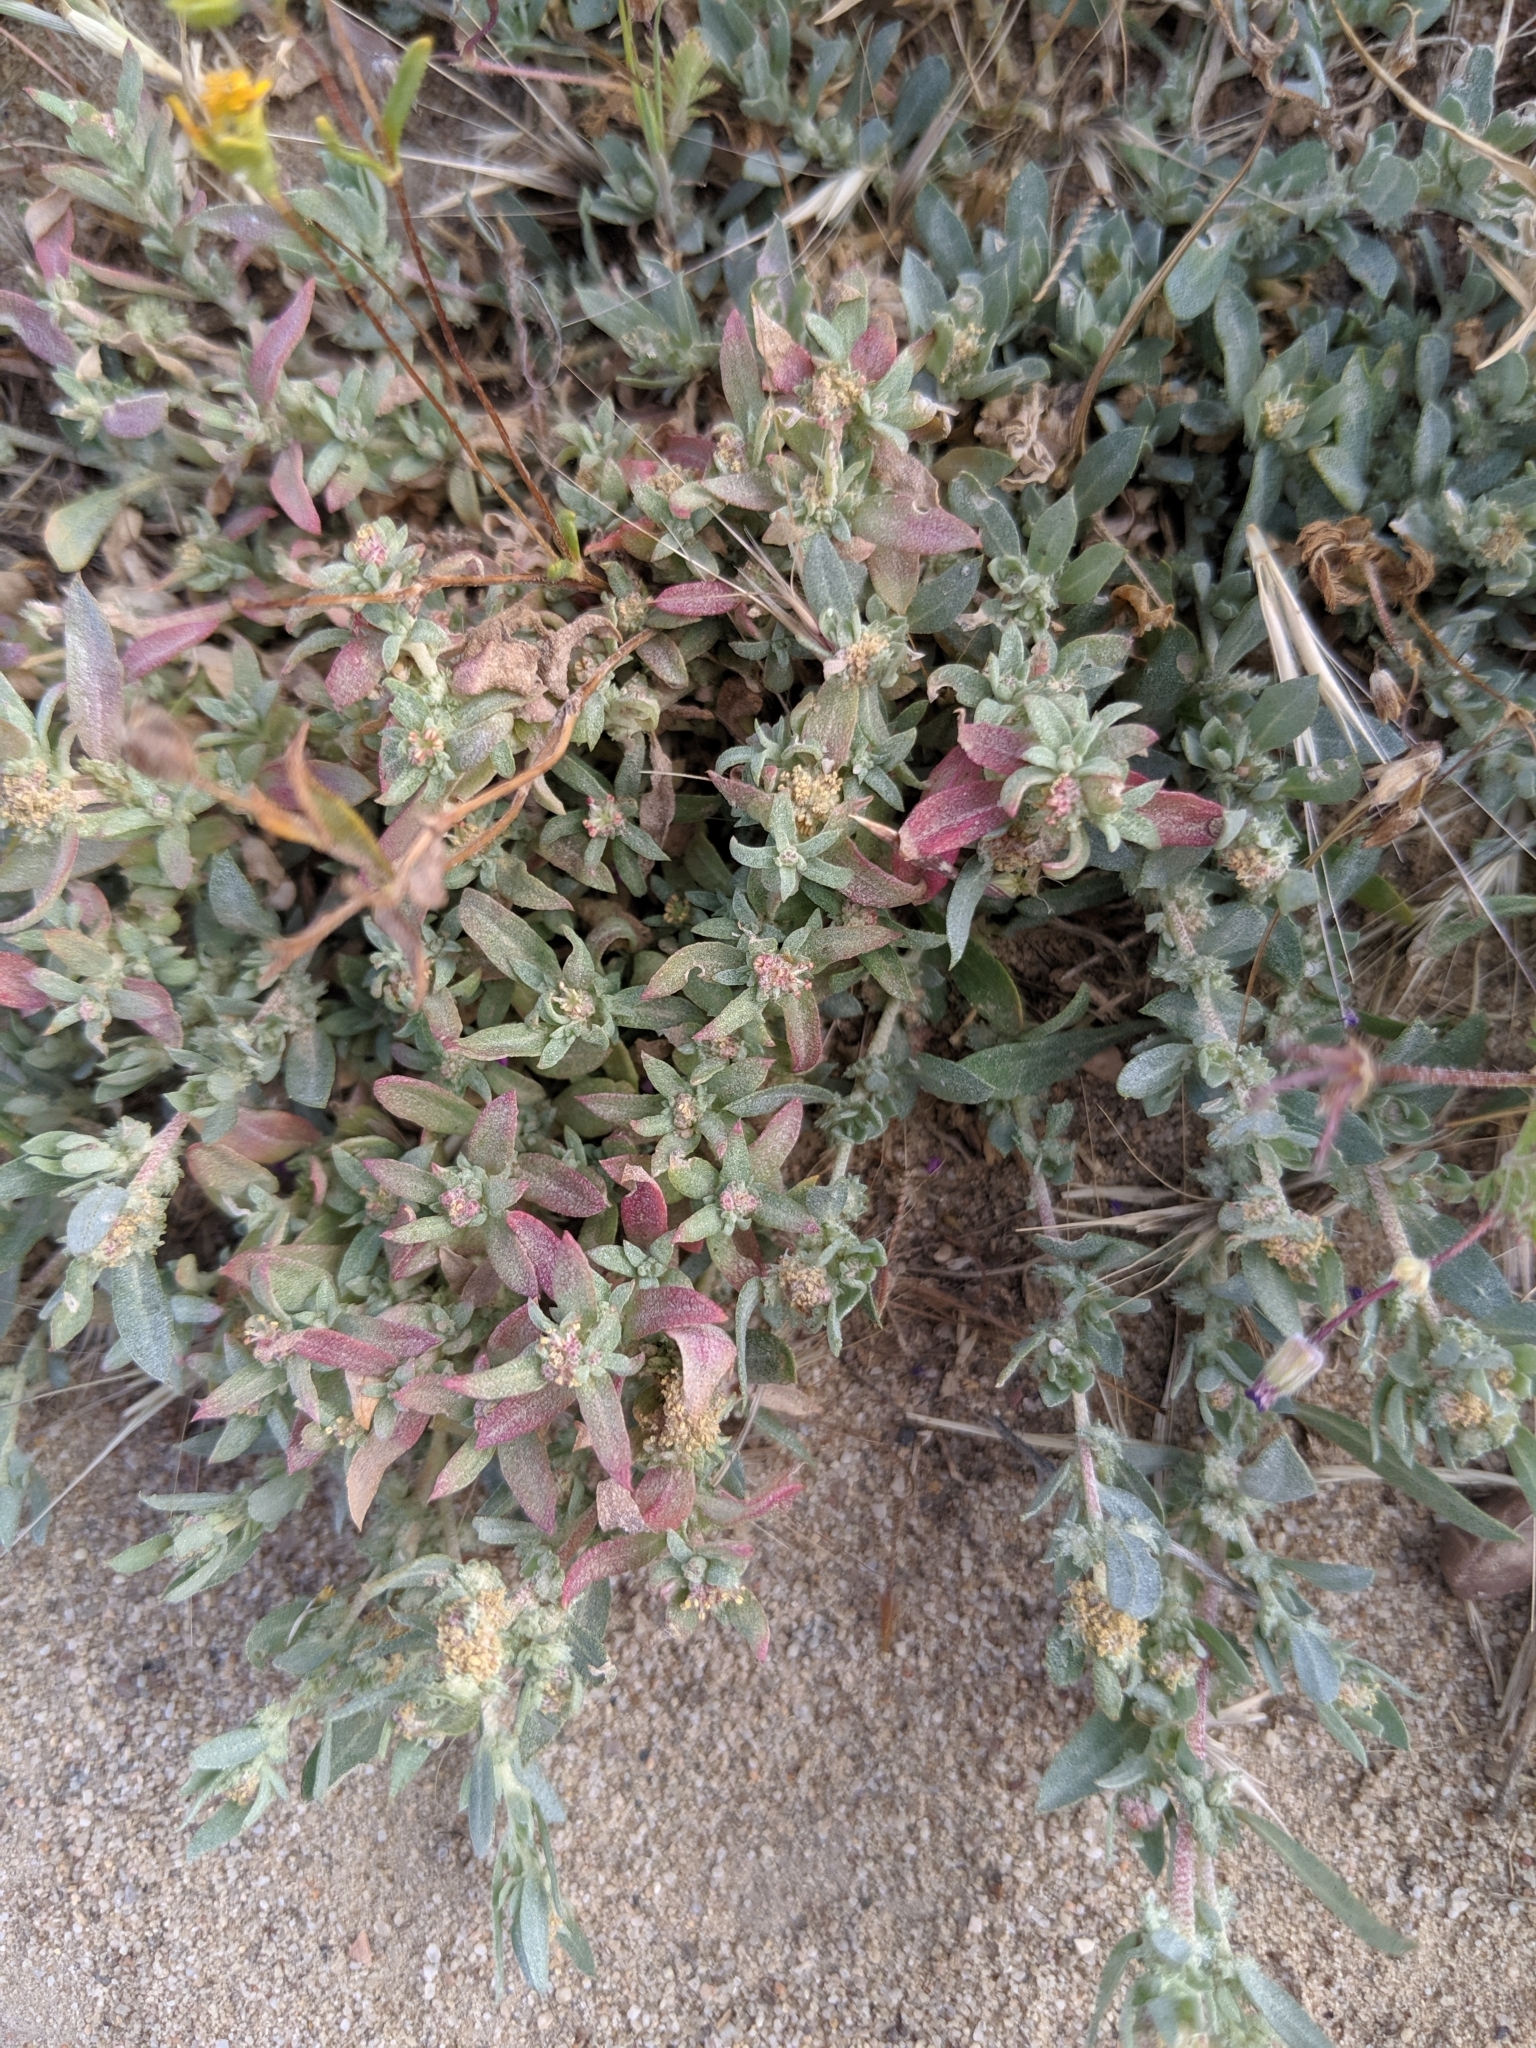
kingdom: Plantae
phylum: Tracheophyta
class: Magnoliopsida
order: Caryophyllales
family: Amaranthaceae
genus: Atriplex
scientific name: Atriplex fruticulosa
